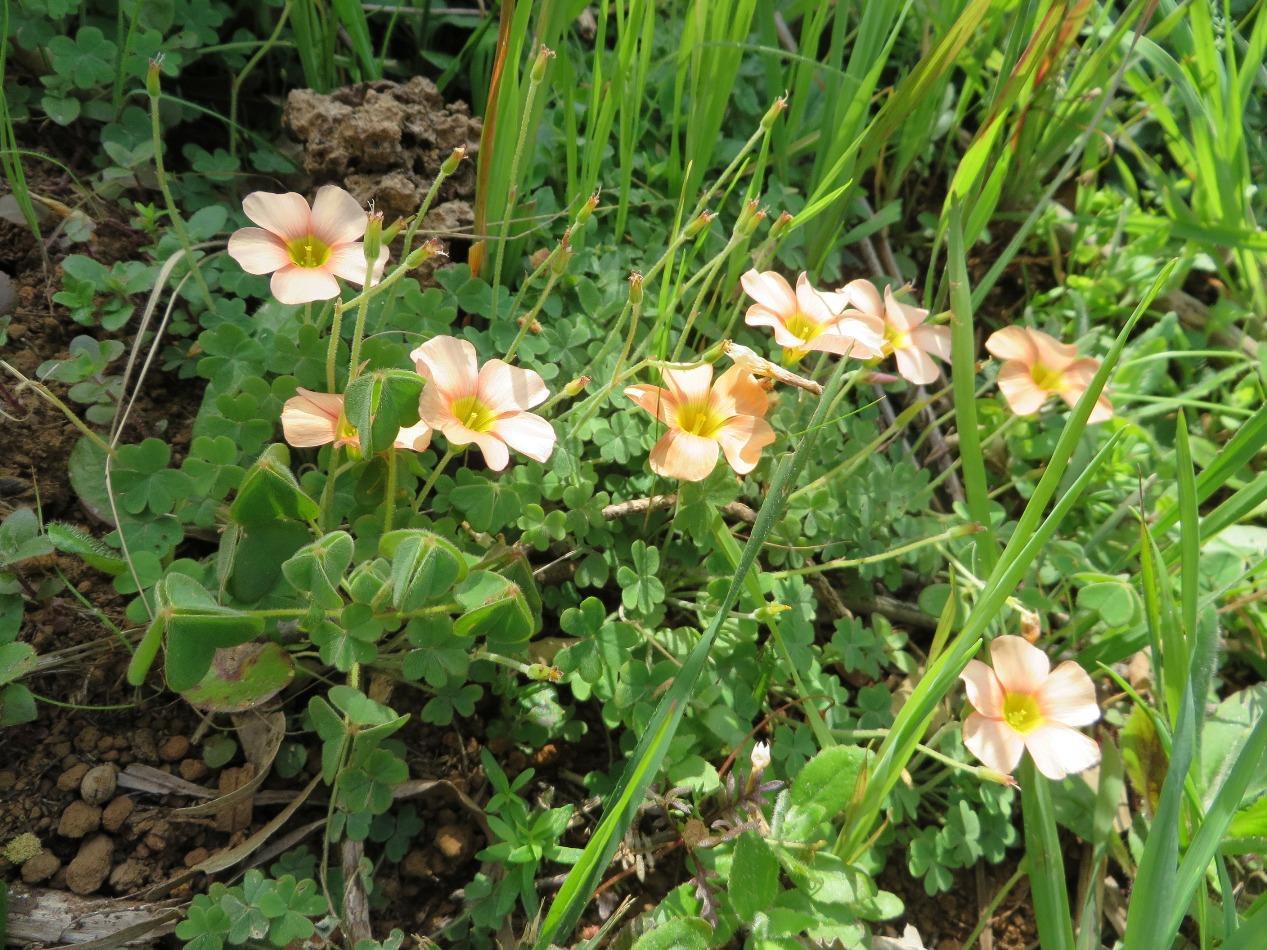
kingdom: Plantae
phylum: Tracheophyta
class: Magnoliopsida
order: Oxalidales
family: Oxalidaceae
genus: Oxalis
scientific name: Oxalis obtusa
